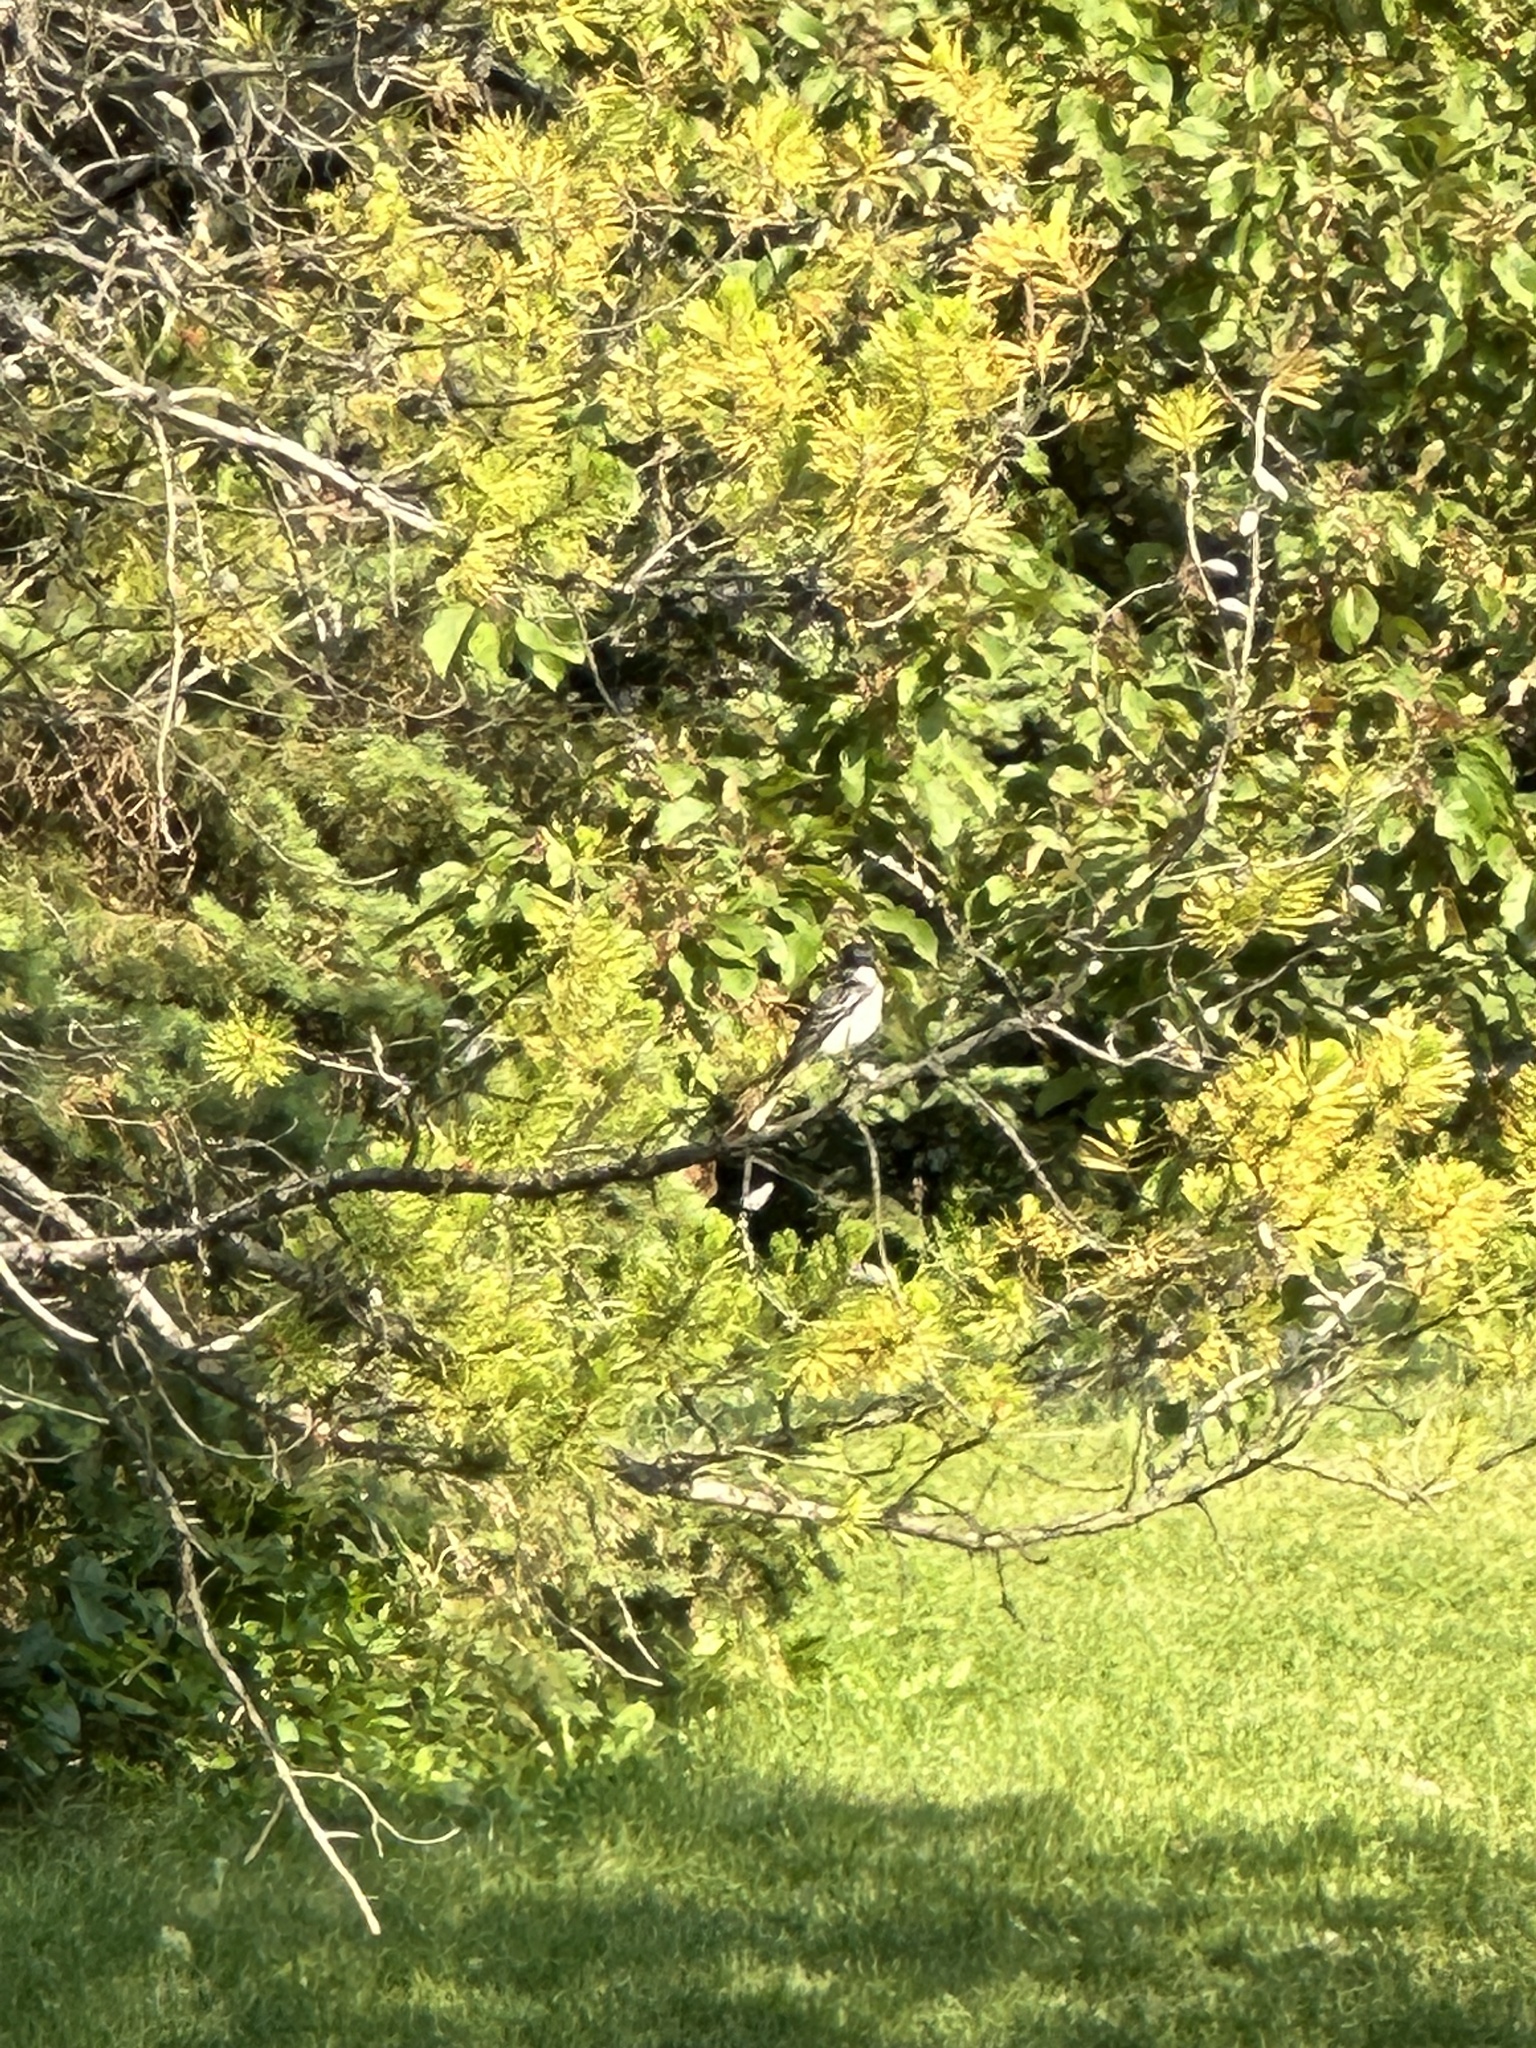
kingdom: Animalia
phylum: Chordata
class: Aves
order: Passeriformes
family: Tyrannidae
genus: Tyrannus
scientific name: Tyrannus tyrannus
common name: Eastern kingbird
